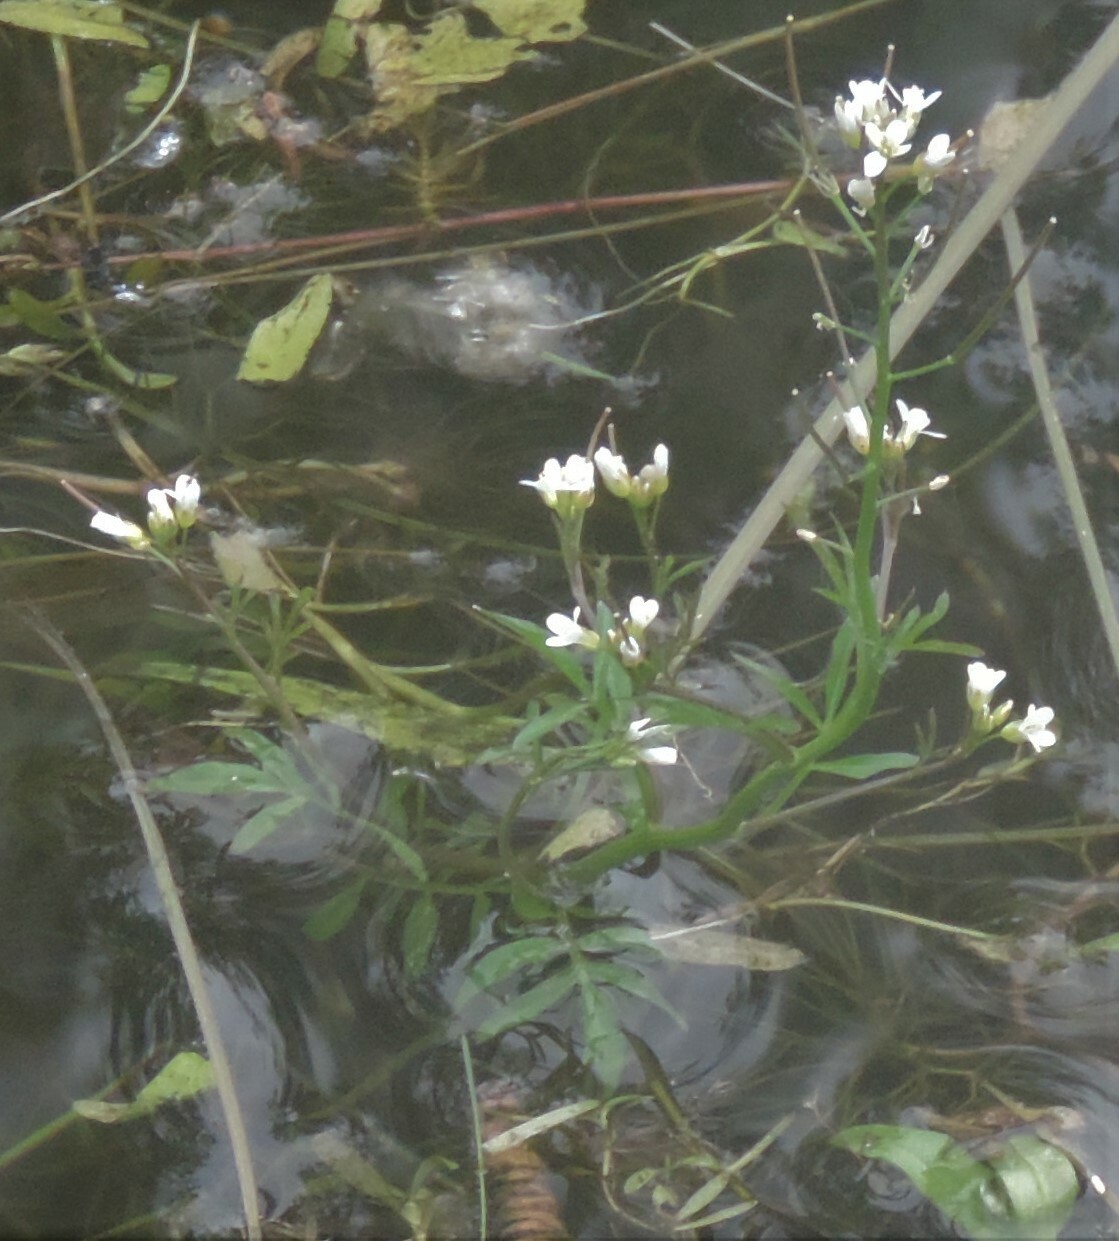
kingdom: Plantae
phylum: Tracheophyta
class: Magnoliopsida
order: Brassicales
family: Brassicaceae
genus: Cardamine
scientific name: Cardamine pensylvanica
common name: Pennsylvania bittercress
